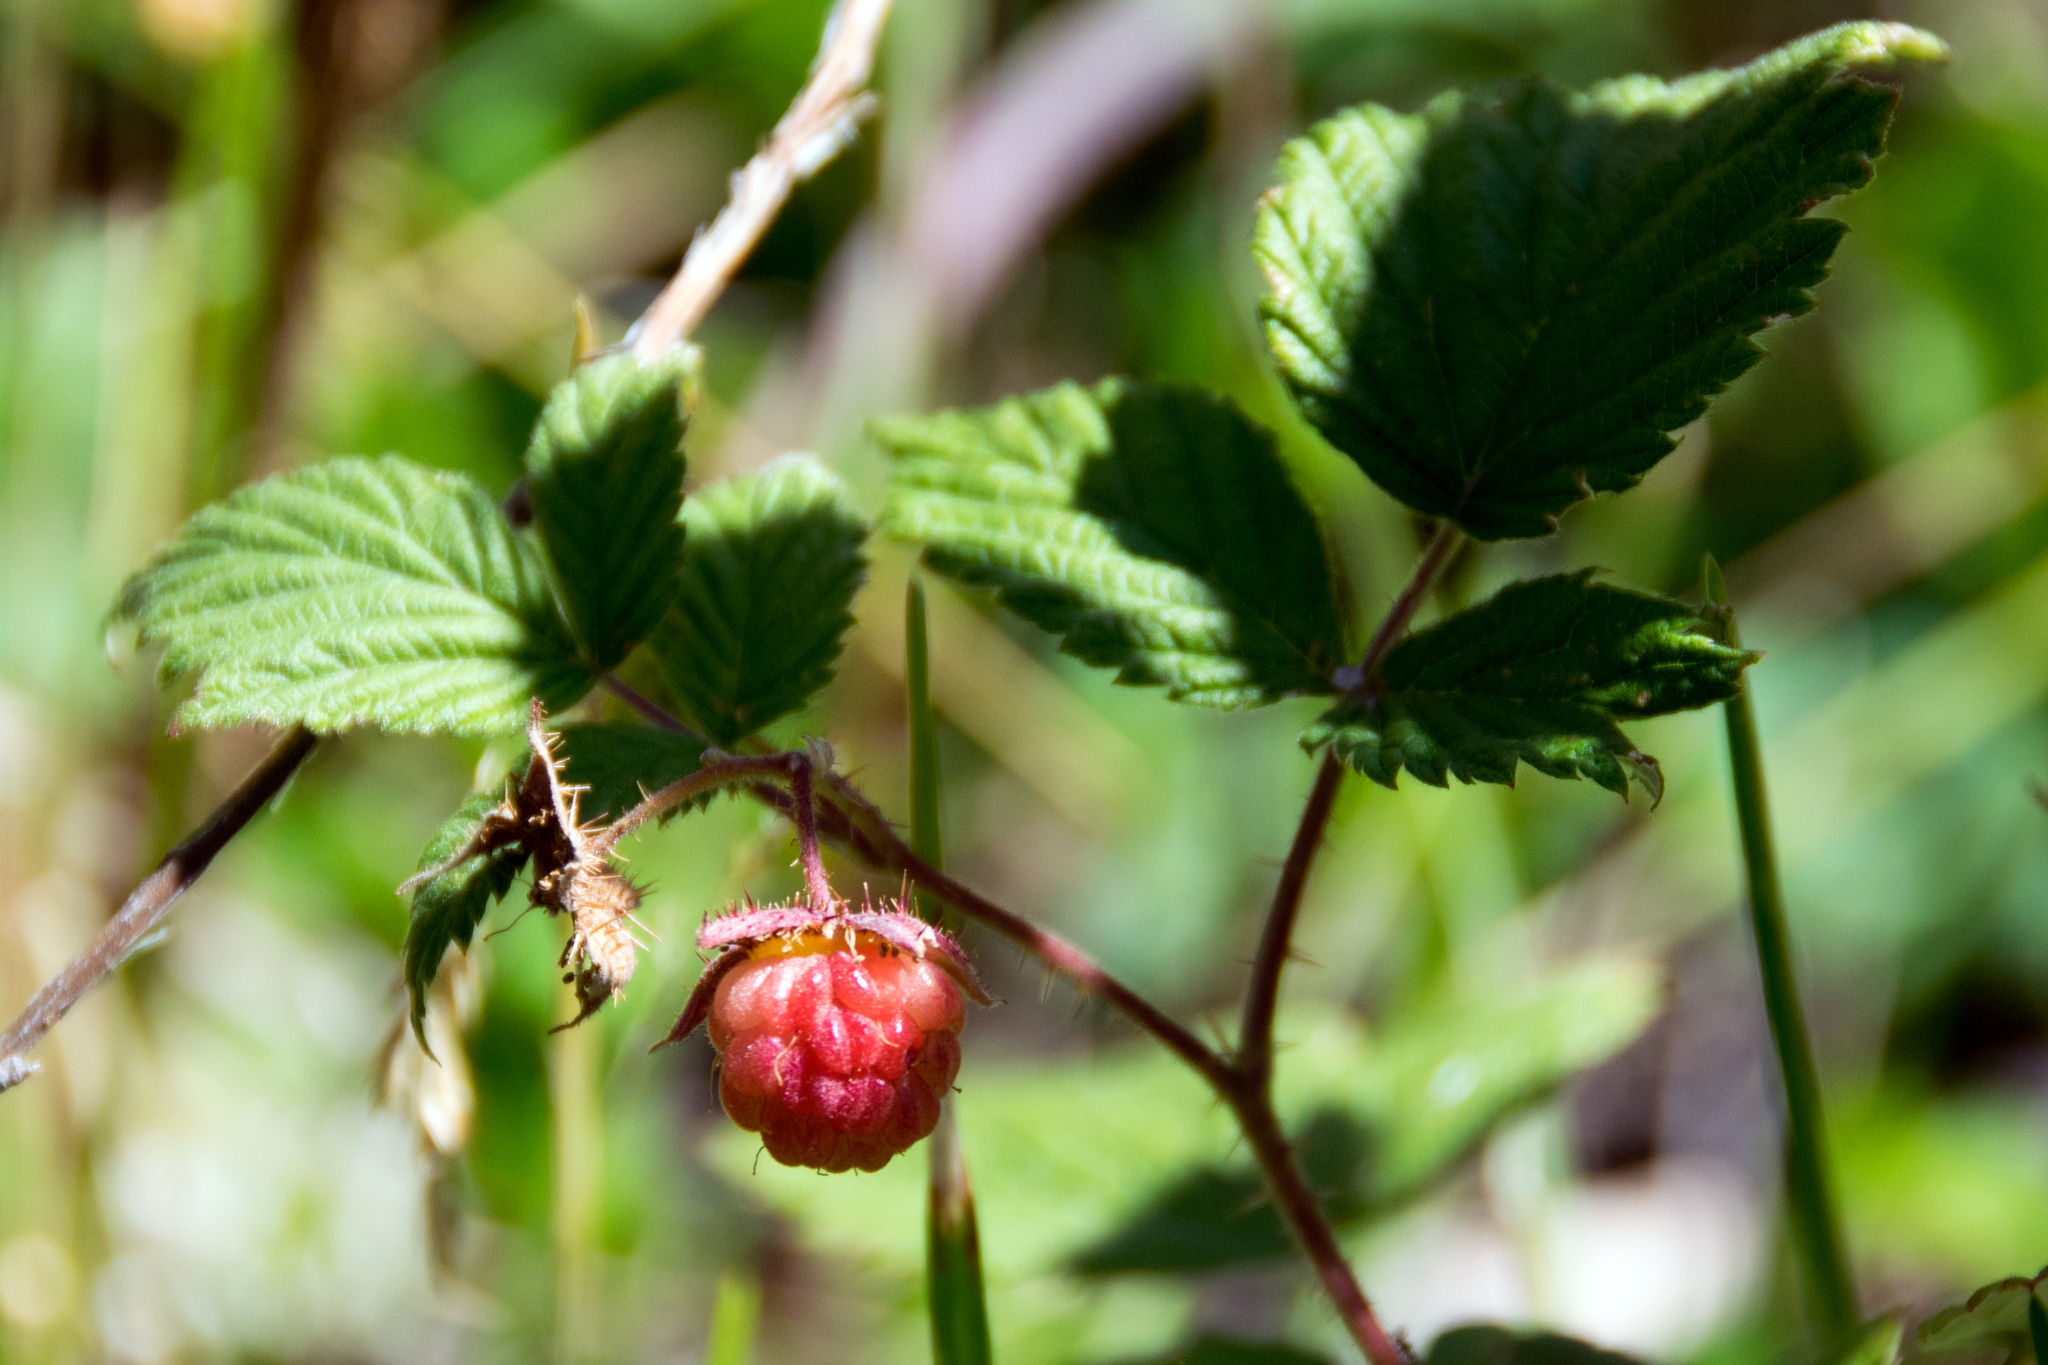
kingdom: Plantae
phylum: Tracheophyta
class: Magnoliopsida
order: Rosales
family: Rosaceae
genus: Rubus
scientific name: Rubus idaeus
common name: Raspberry
